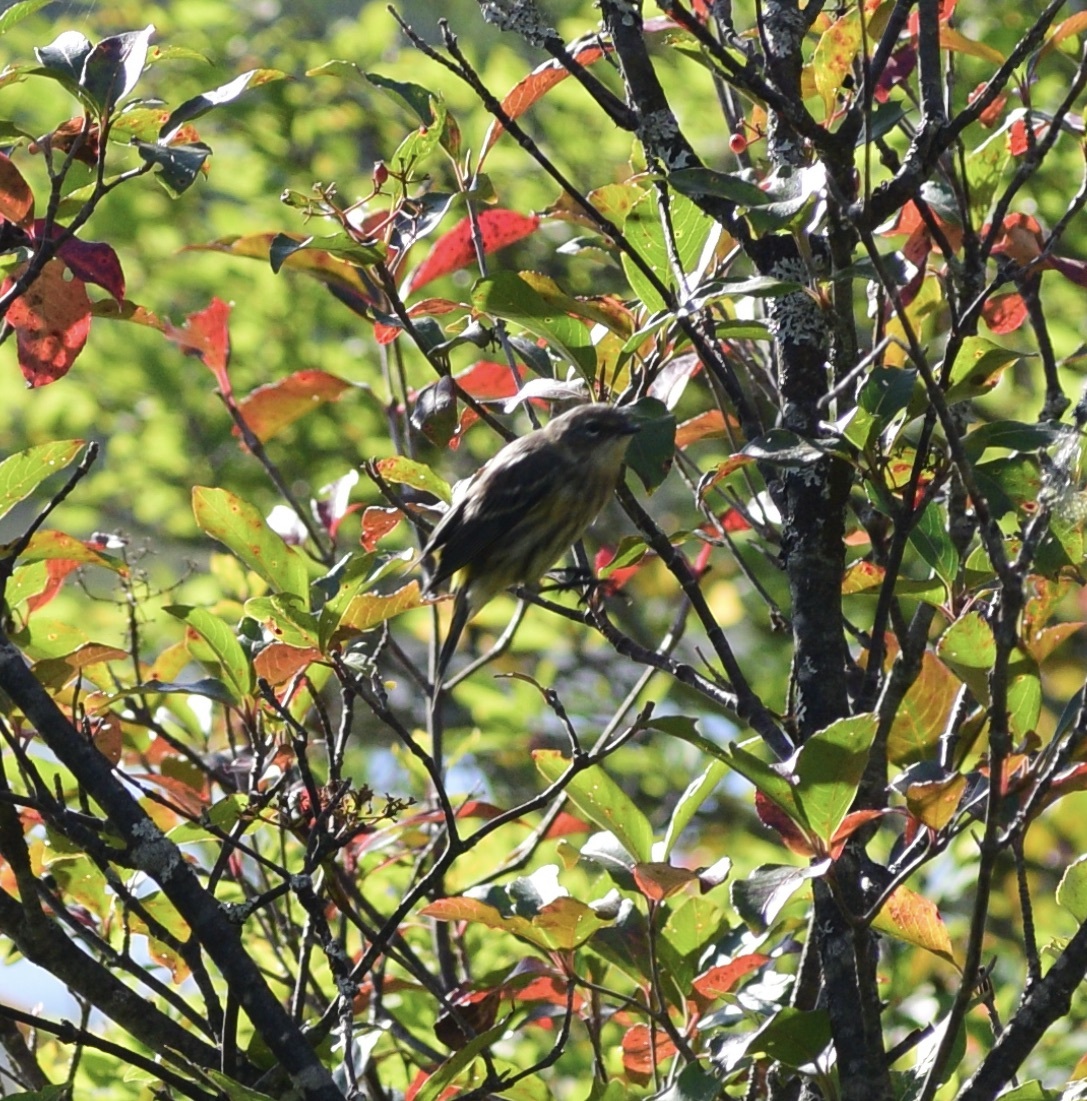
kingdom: Animalia
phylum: Chordata
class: Aves
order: Passeriformes
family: Parulidae
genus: Setophaga
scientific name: Setophaga coronata
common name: Myrtle warbler
